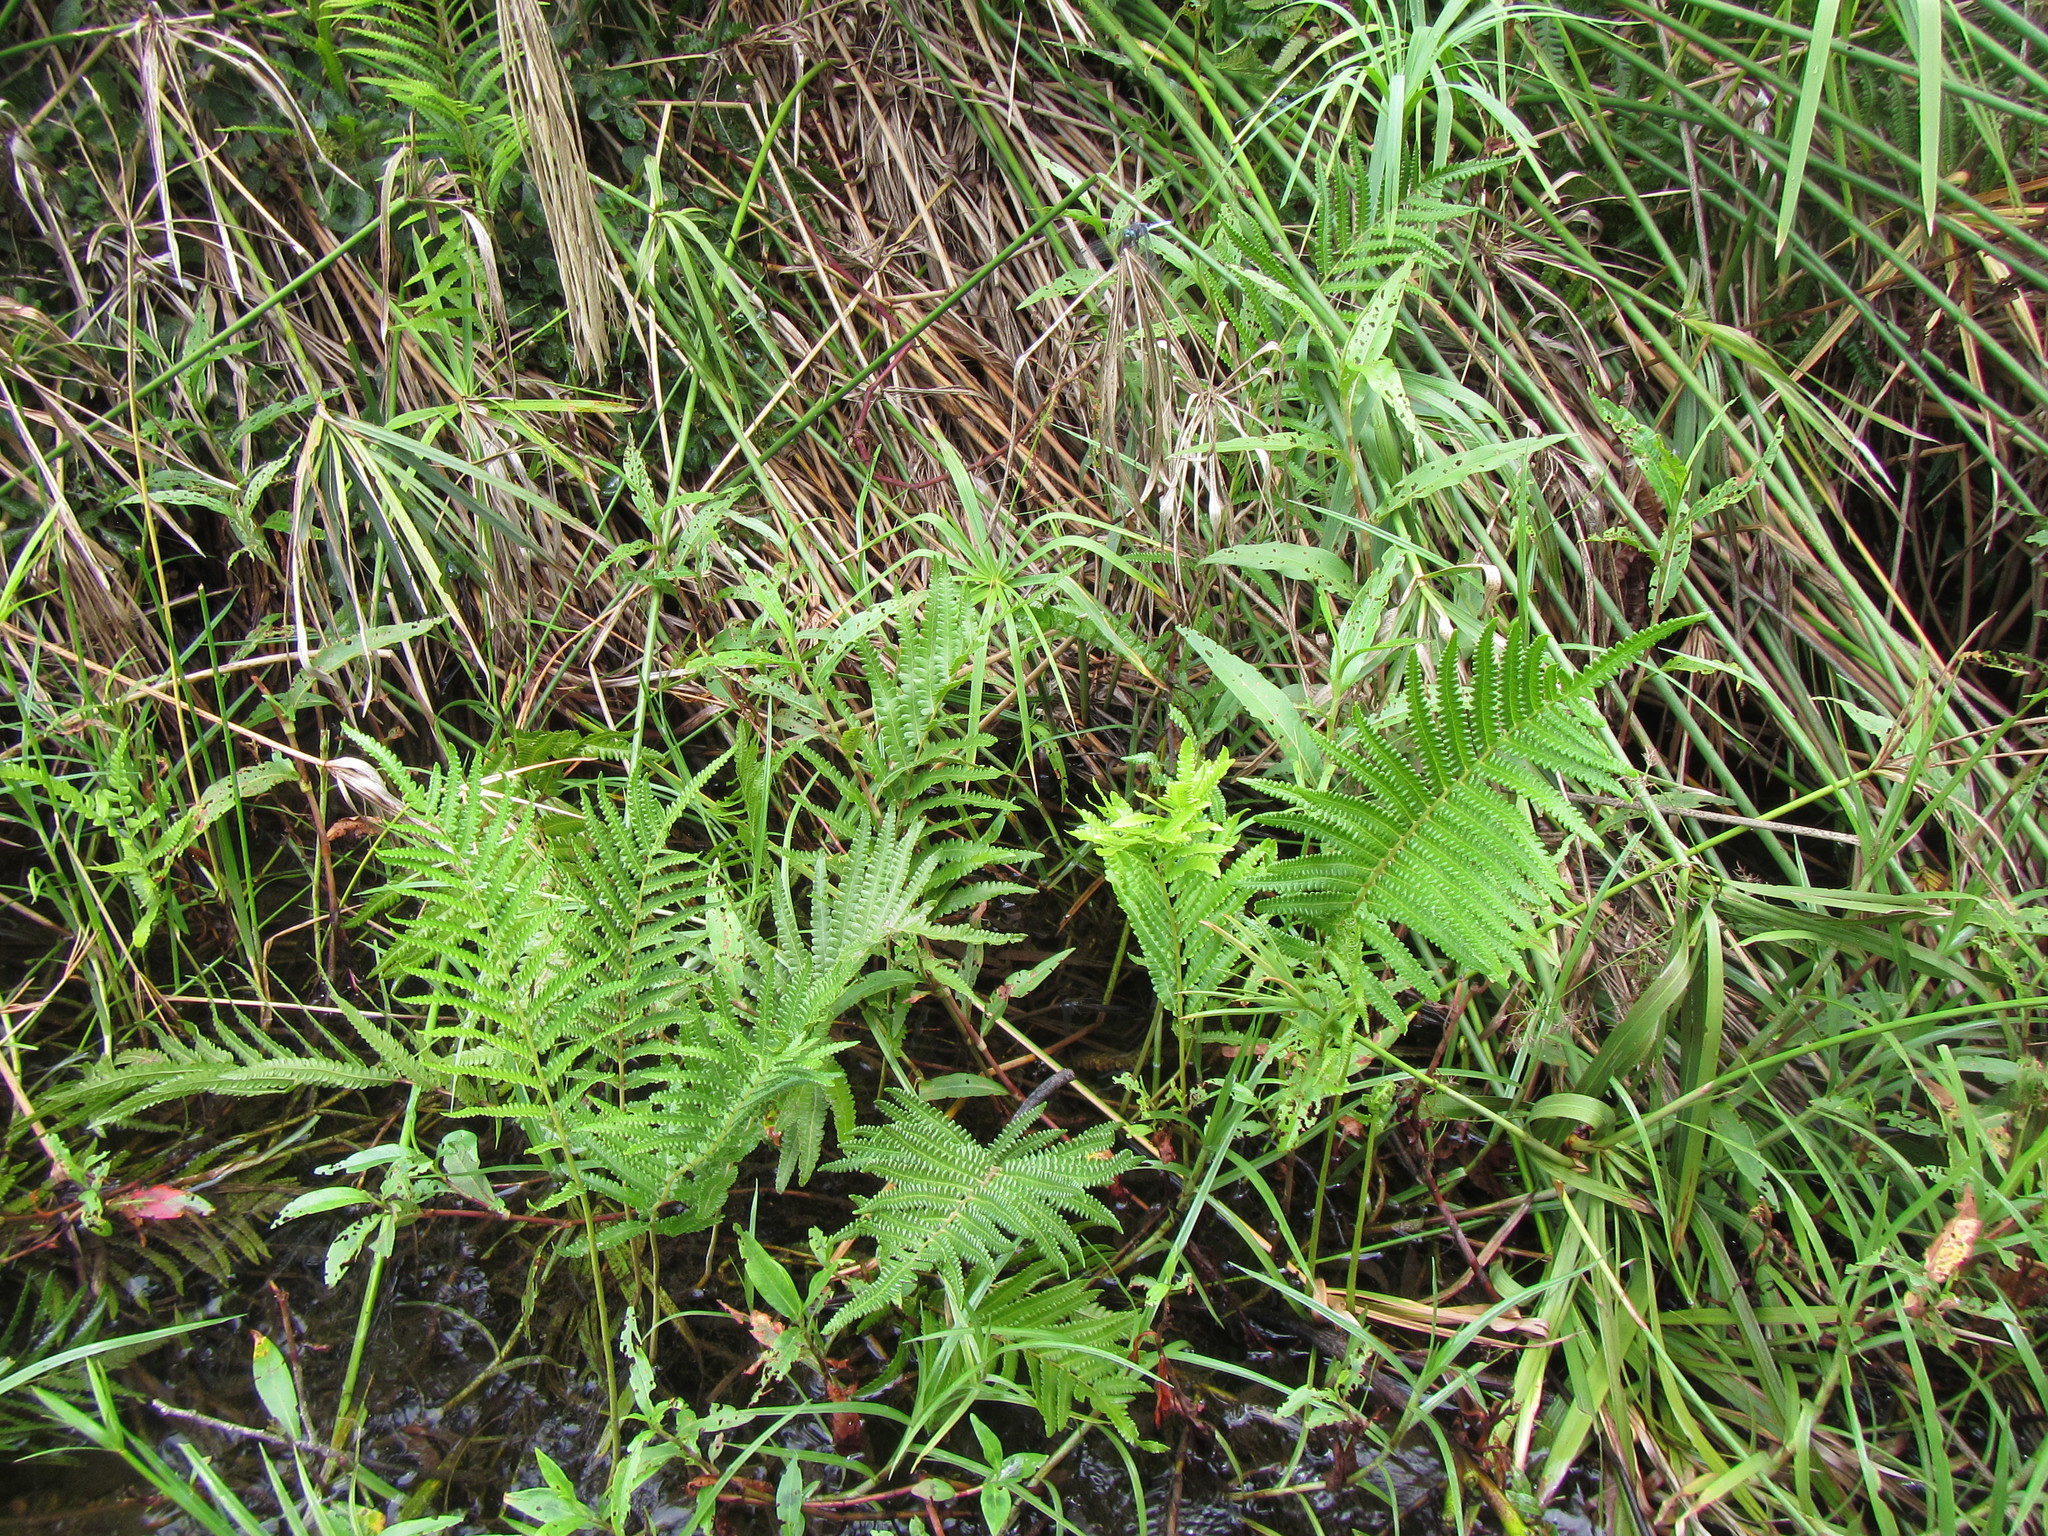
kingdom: Plantae
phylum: Tracheophyta
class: Polypodiopsida
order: Polypodiales
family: Thelypteridaceae
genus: Cyclosorus
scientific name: Cyclosorus interruptus
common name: Neke fern
